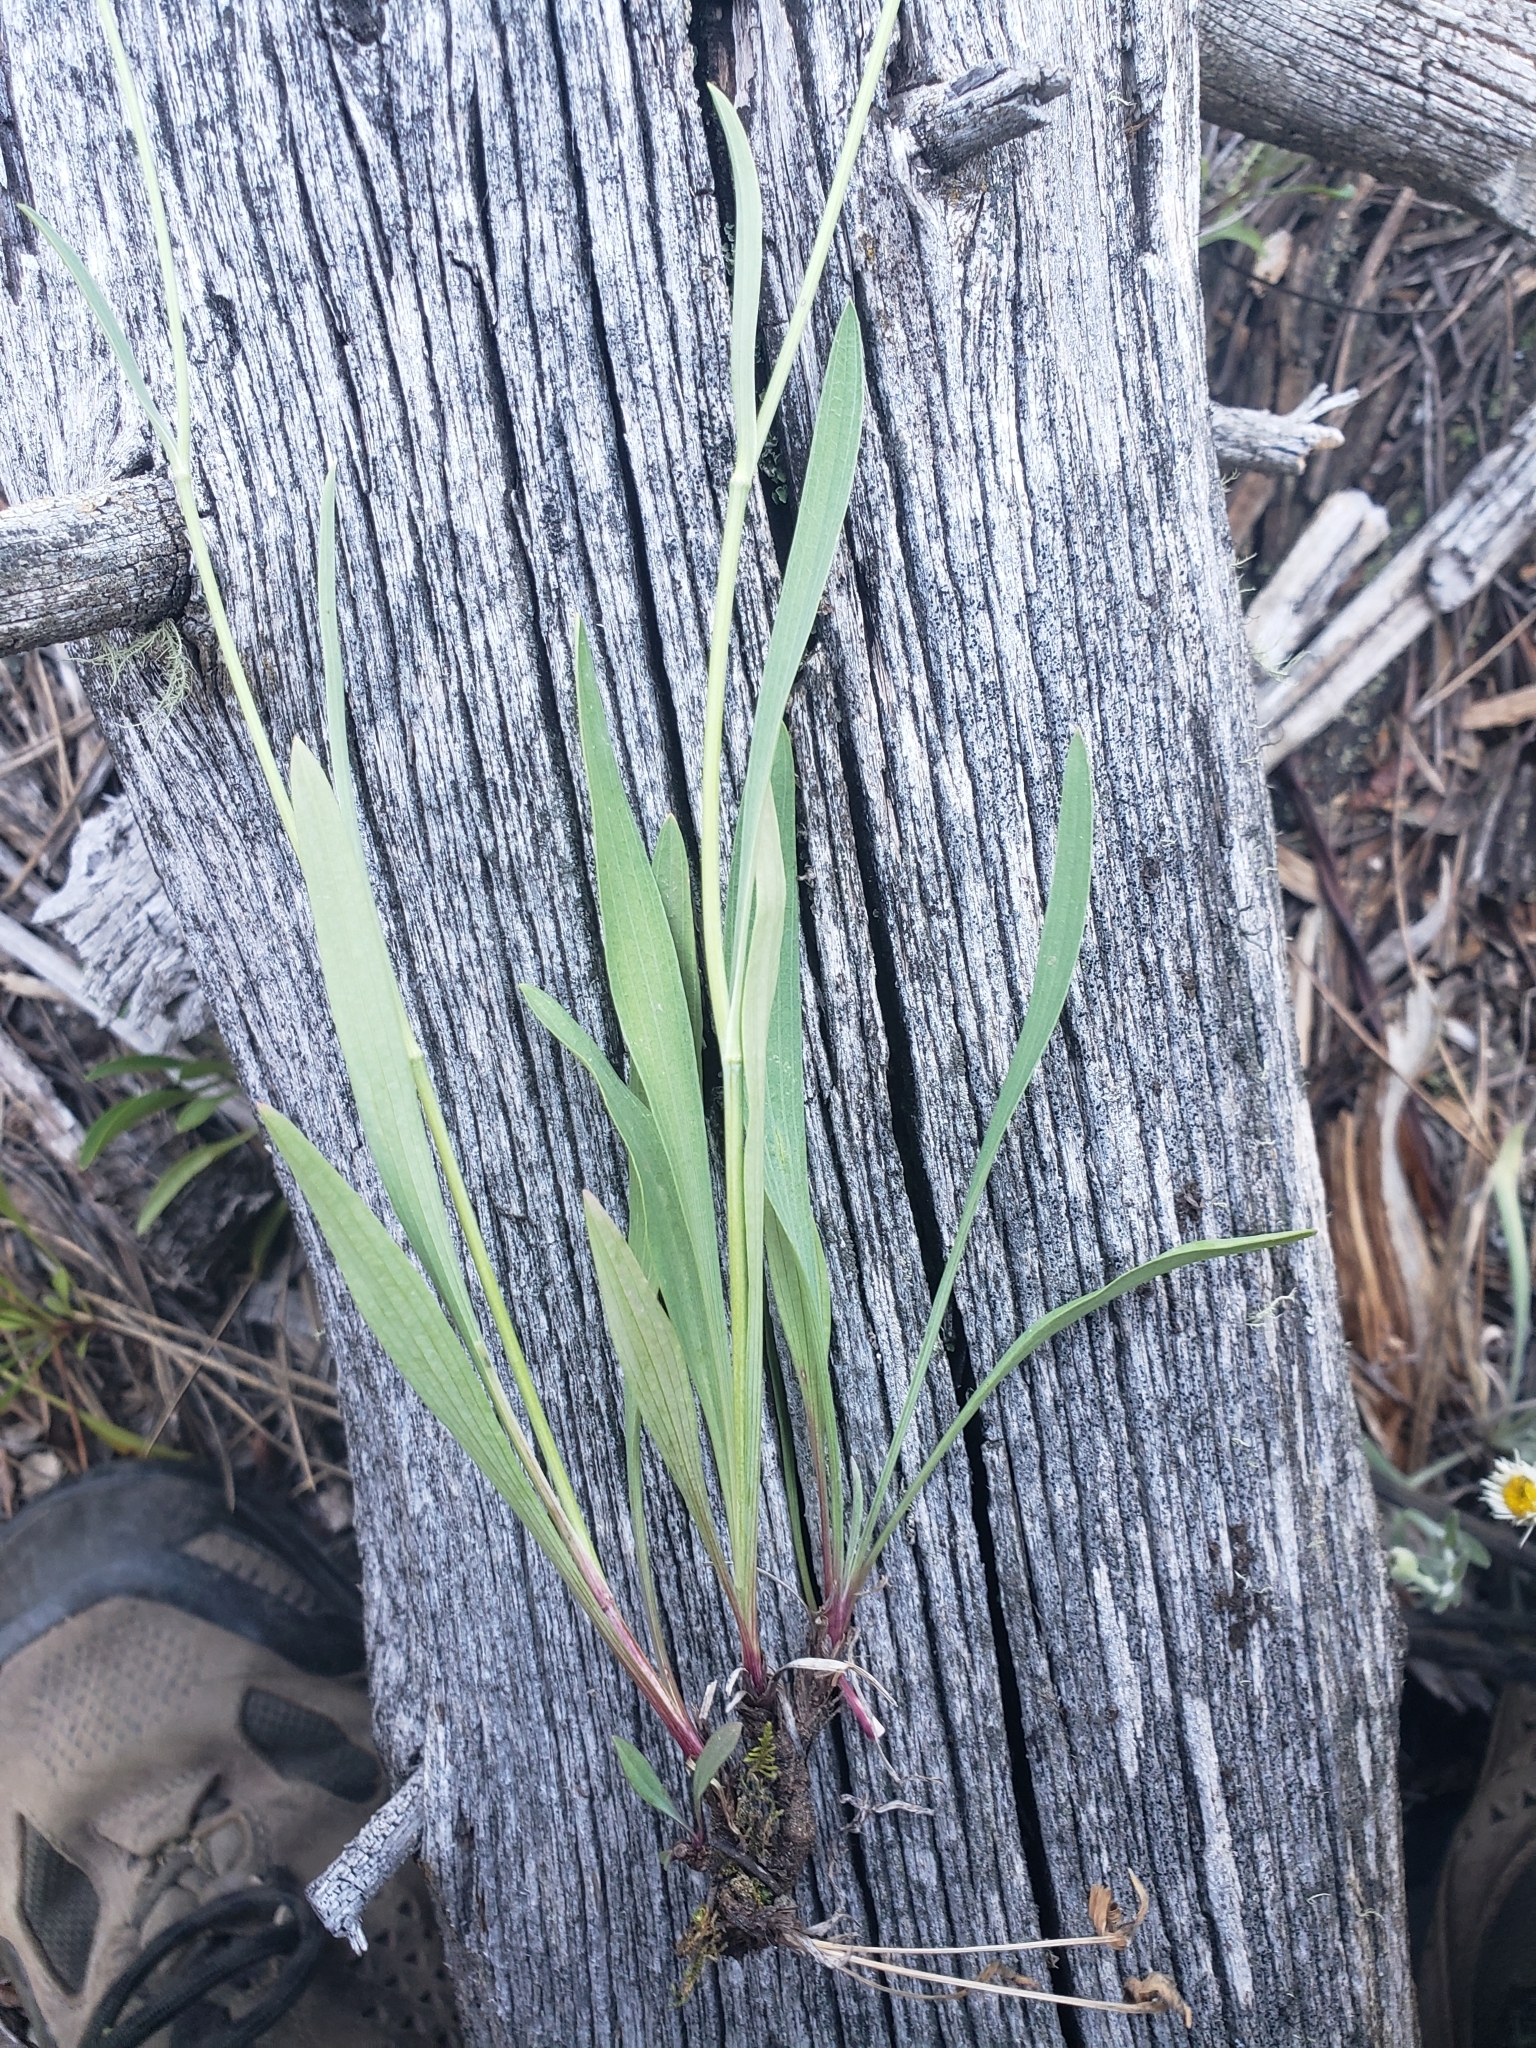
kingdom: Plantae
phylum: Tracheophyta
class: Magnoliopsida
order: Apiales
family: Apiaceae
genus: Bupleurum
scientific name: Bupleurum americanum
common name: American thoroughwax
